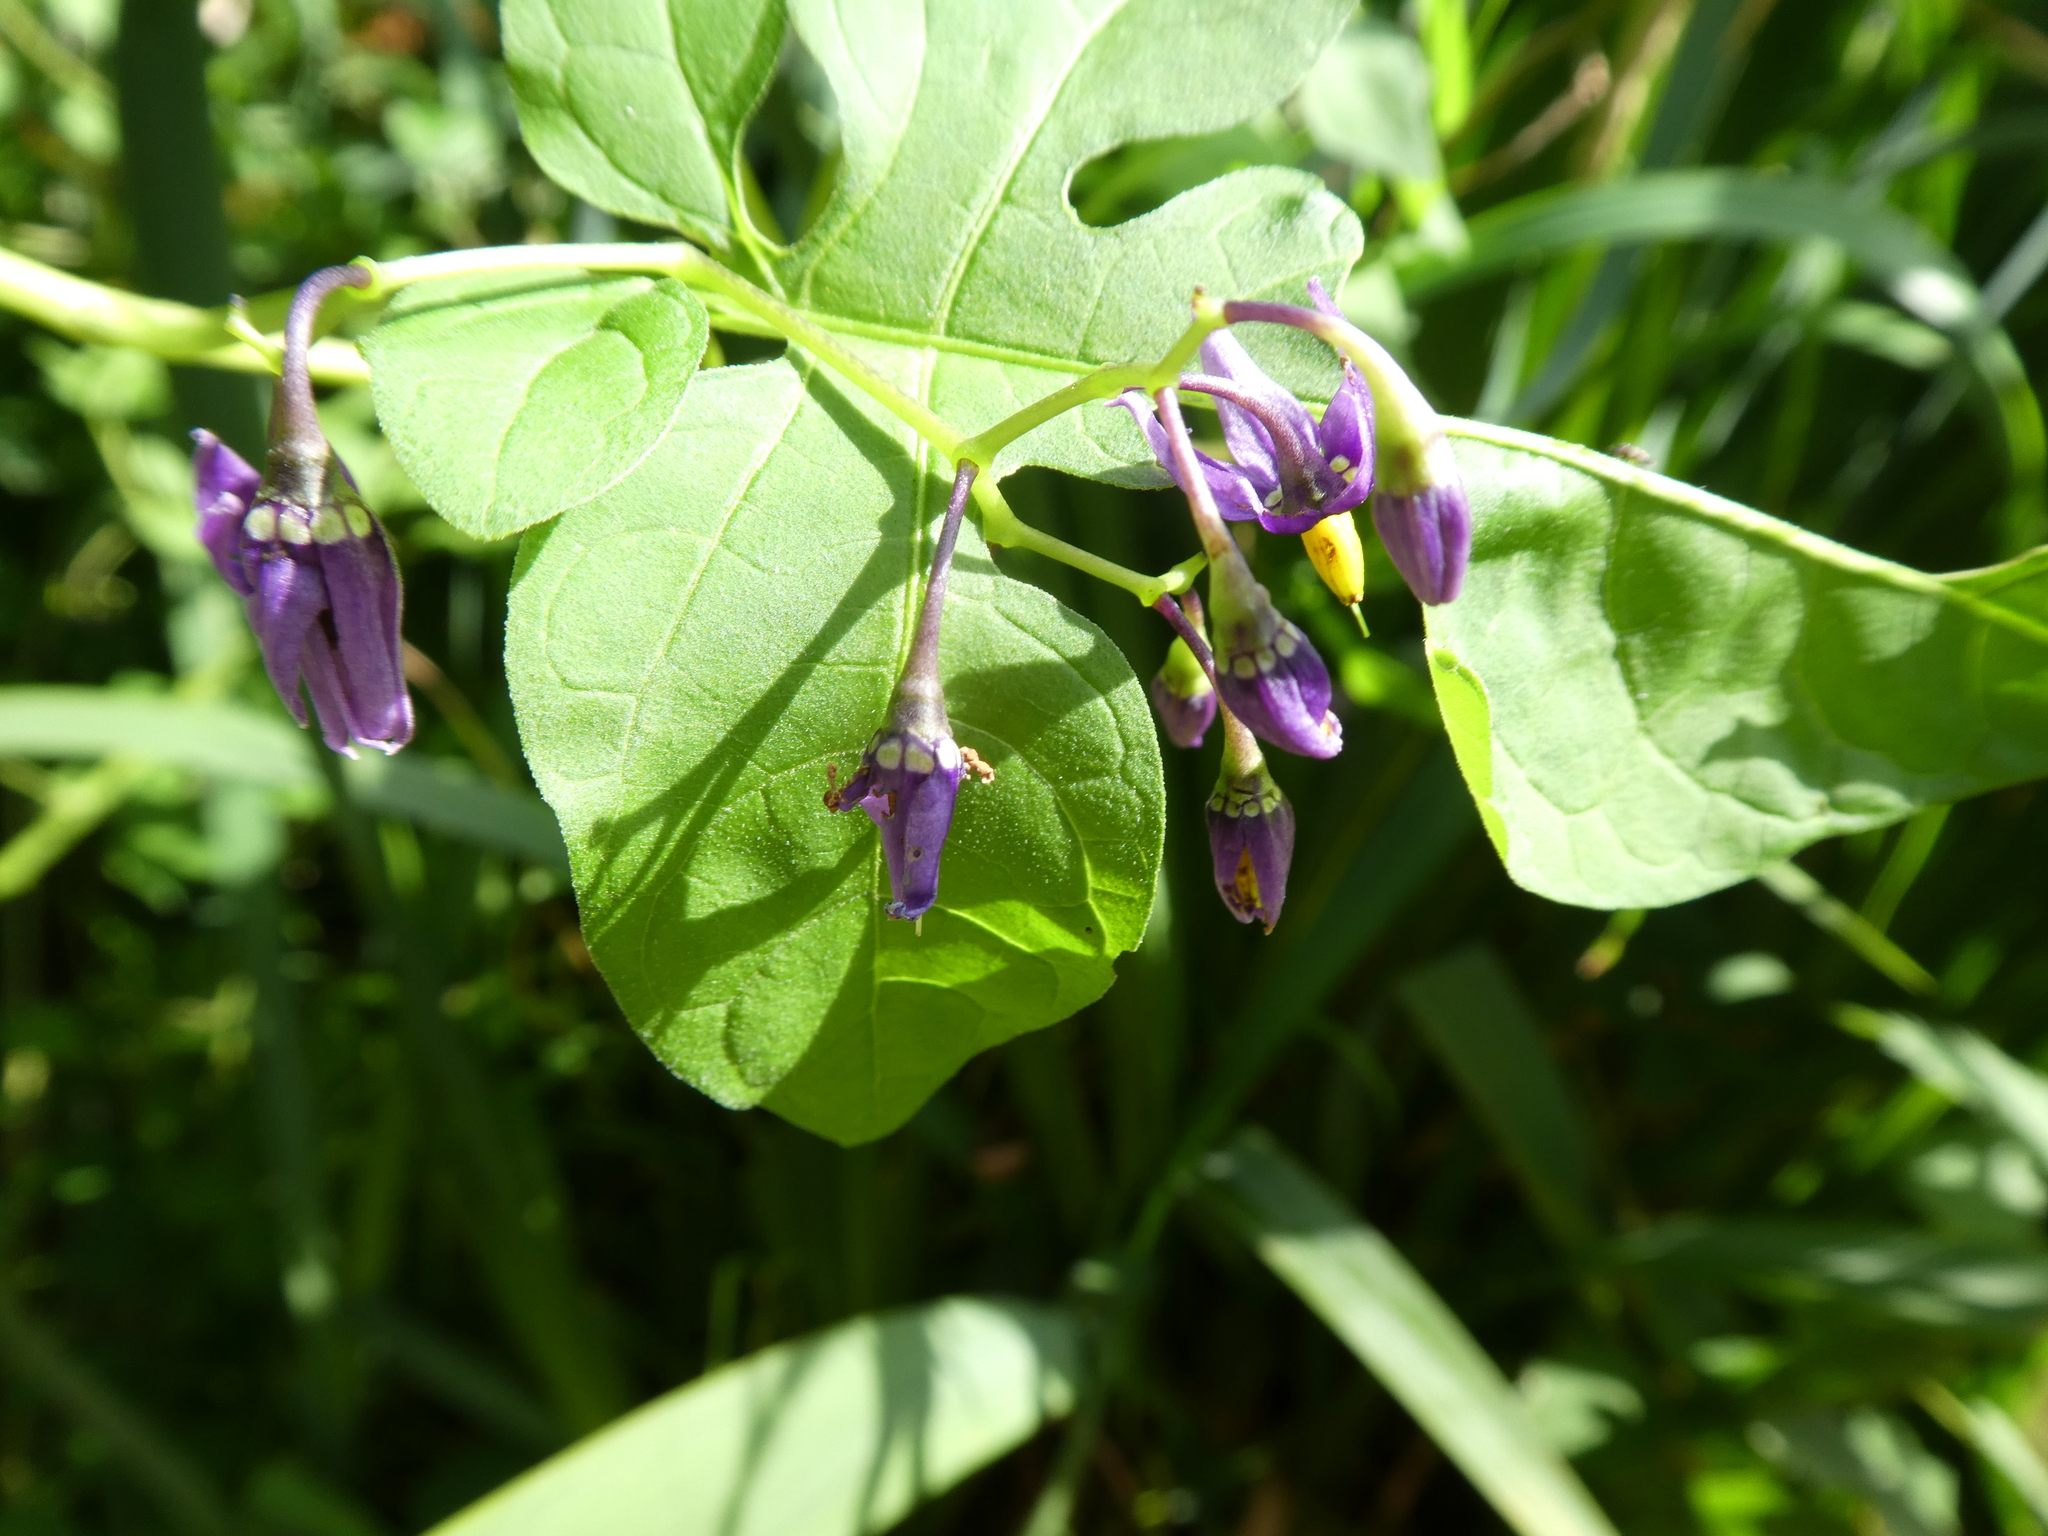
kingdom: Plantae
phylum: Tracheophyta
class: Magnoliopsida
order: Solanales
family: Solanaceae
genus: Solanum
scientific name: Solanum dulcamara
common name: Climbing nightshade
